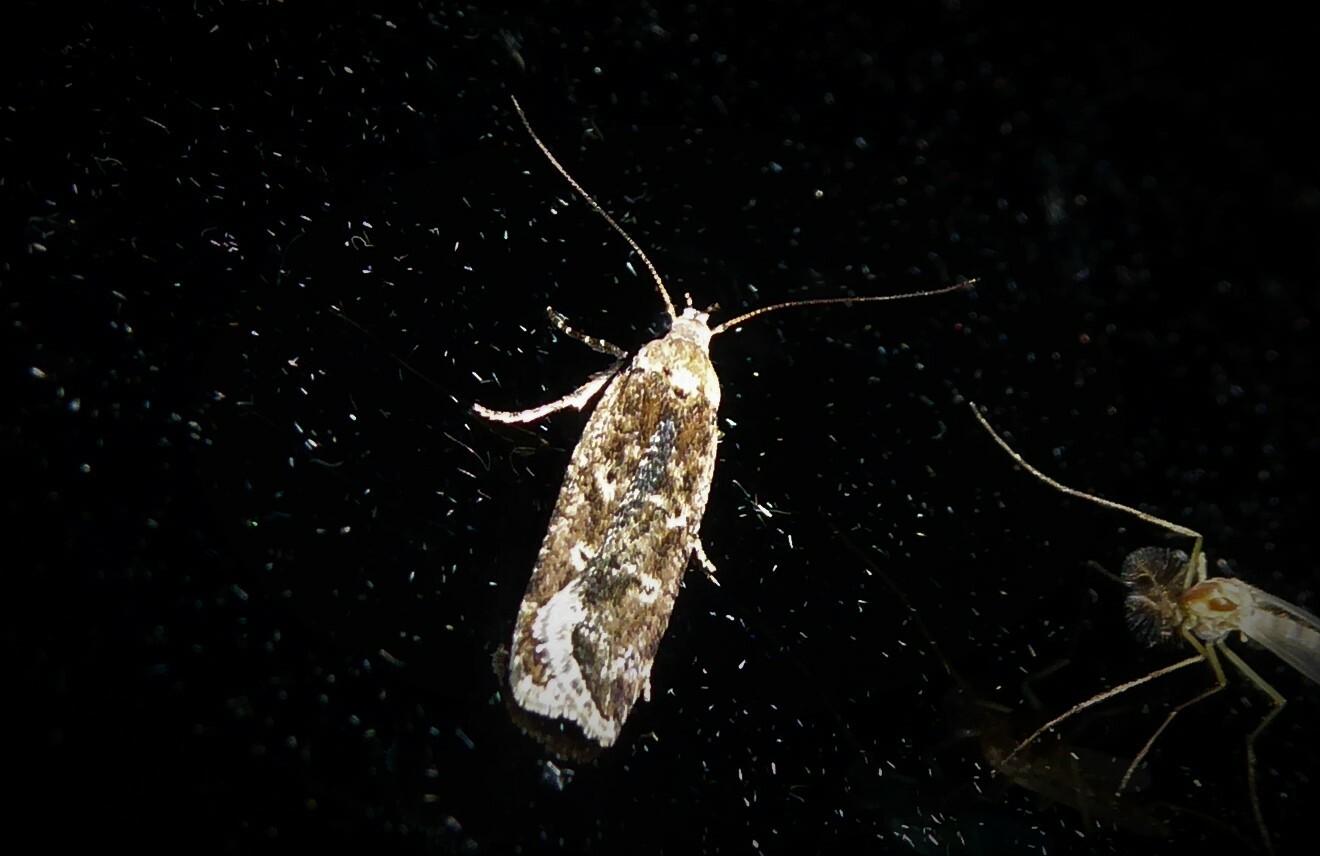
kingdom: Animalia
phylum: Arthropoda
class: Insecta
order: Lepidoptera
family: Gelechiidae
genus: Anisoplaca
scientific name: Anisoplaca achyrota
